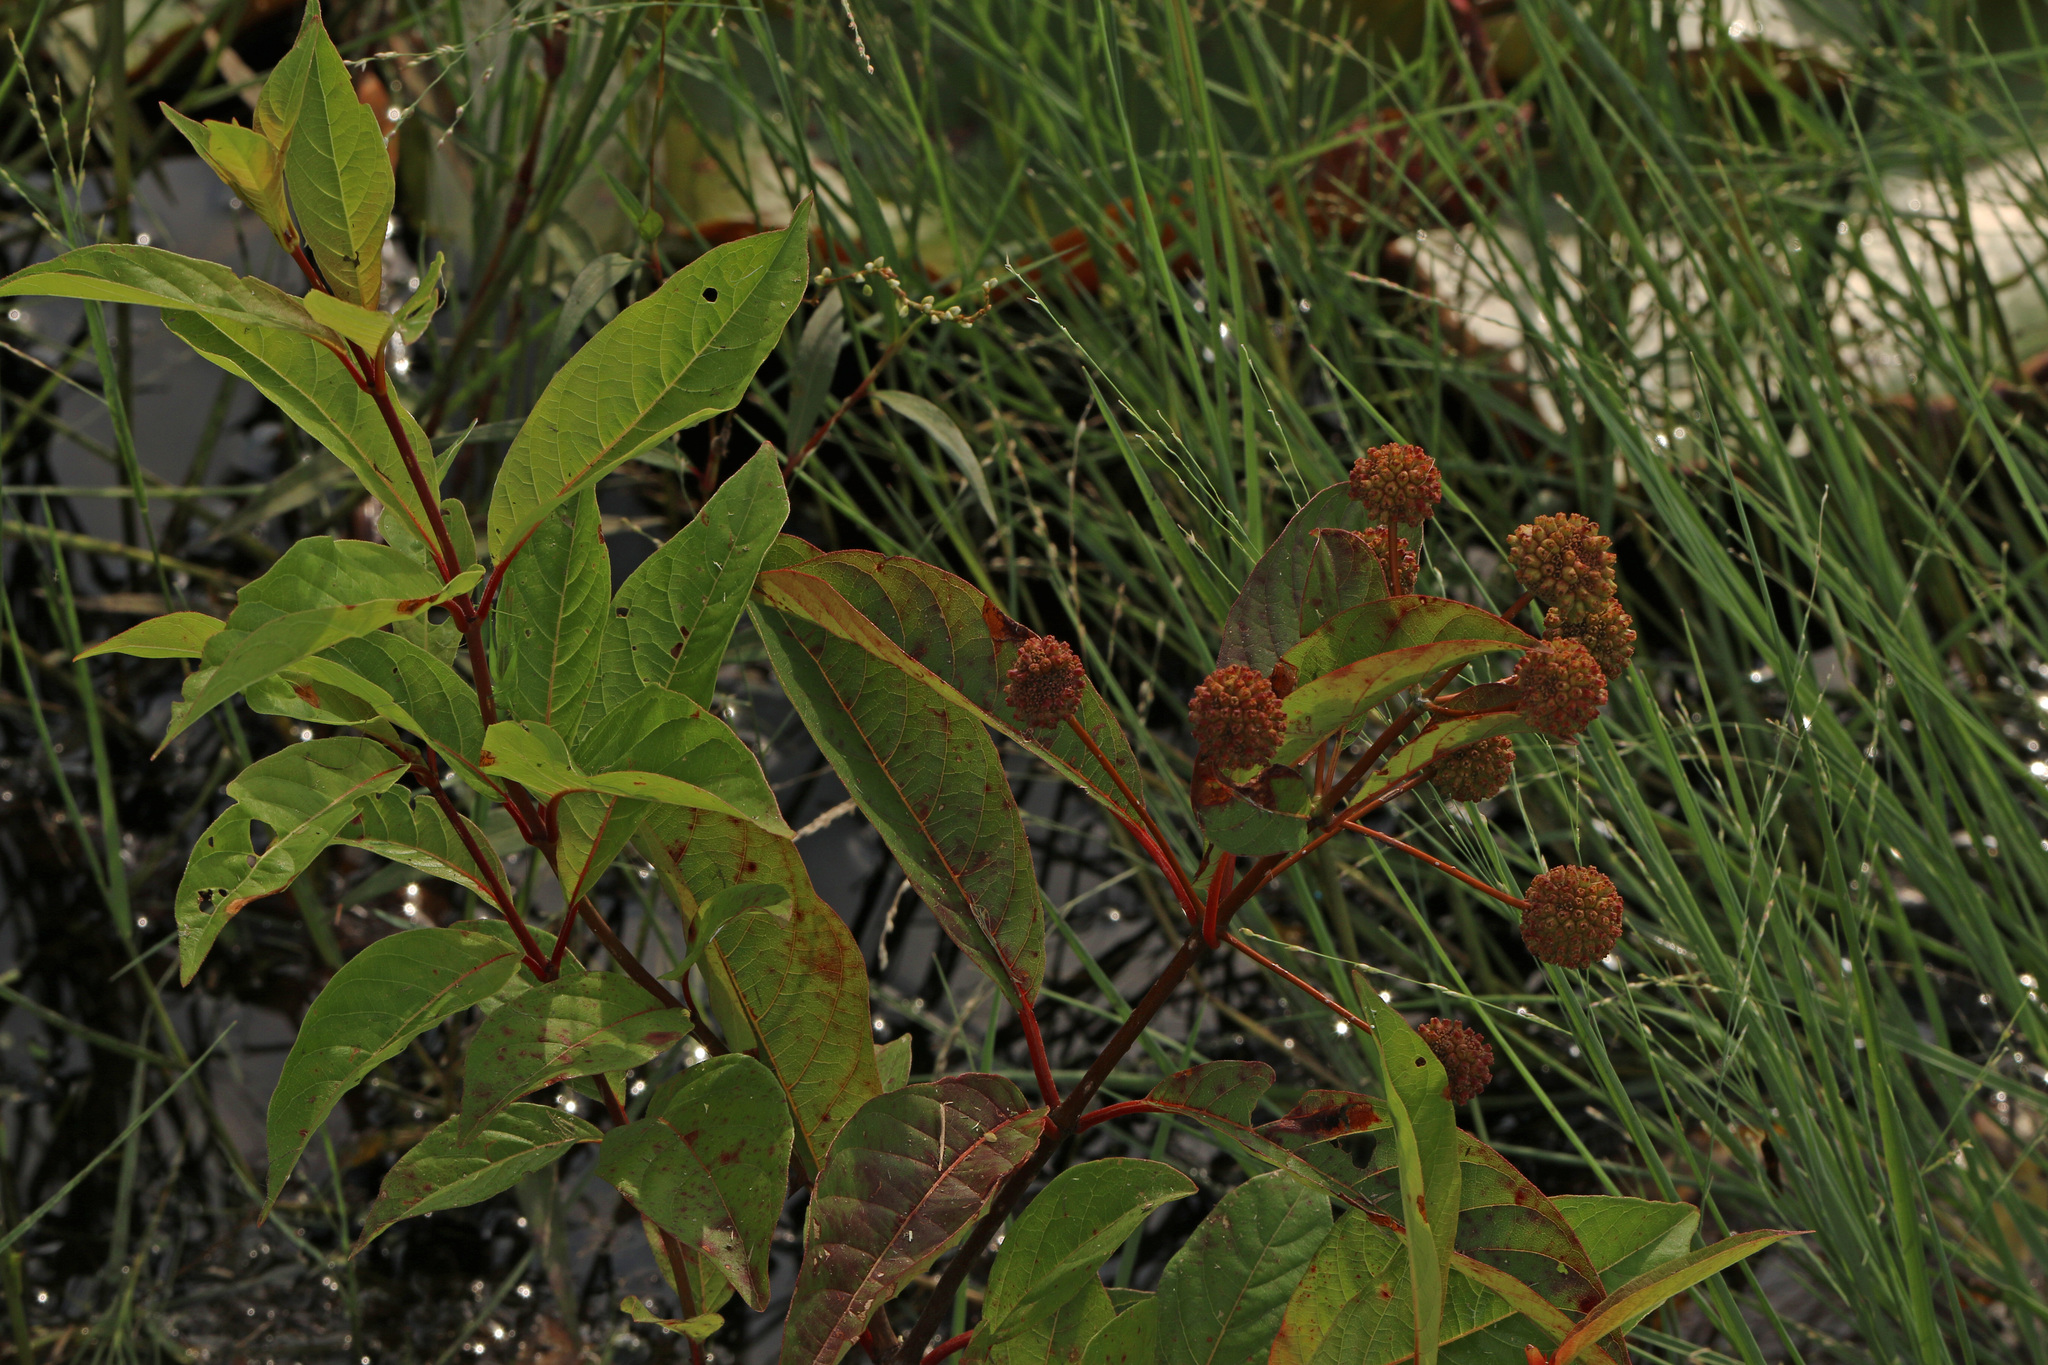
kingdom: Plantae
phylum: Tracheophyta
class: Magnoliopsida
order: Gentianales
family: Rubiaceae
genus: Cephalanthus
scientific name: Cephalanthus occidentalis
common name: Button-willow
